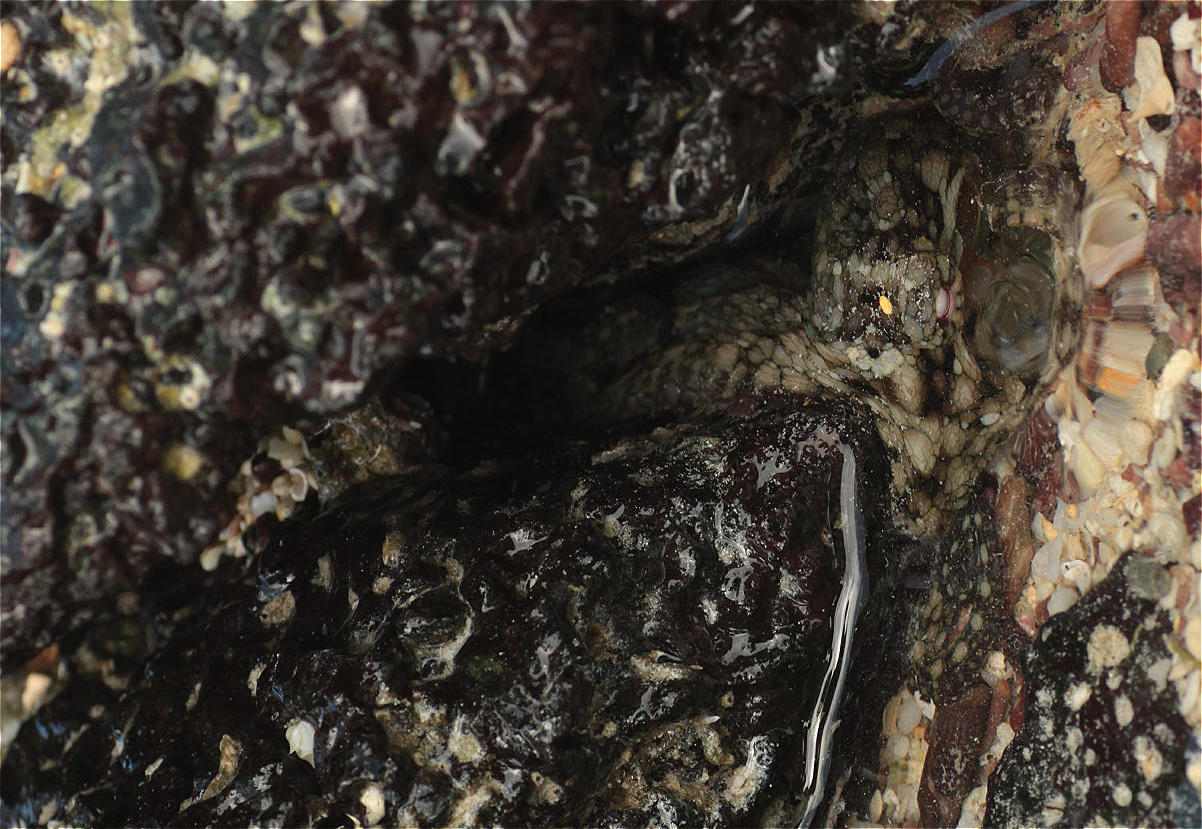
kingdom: Animalia
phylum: Mollusca
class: Cephalopoda
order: Octopoda
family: Octopodidae
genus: Octopus
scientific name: Octopus oculifer
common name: Reef octopus
